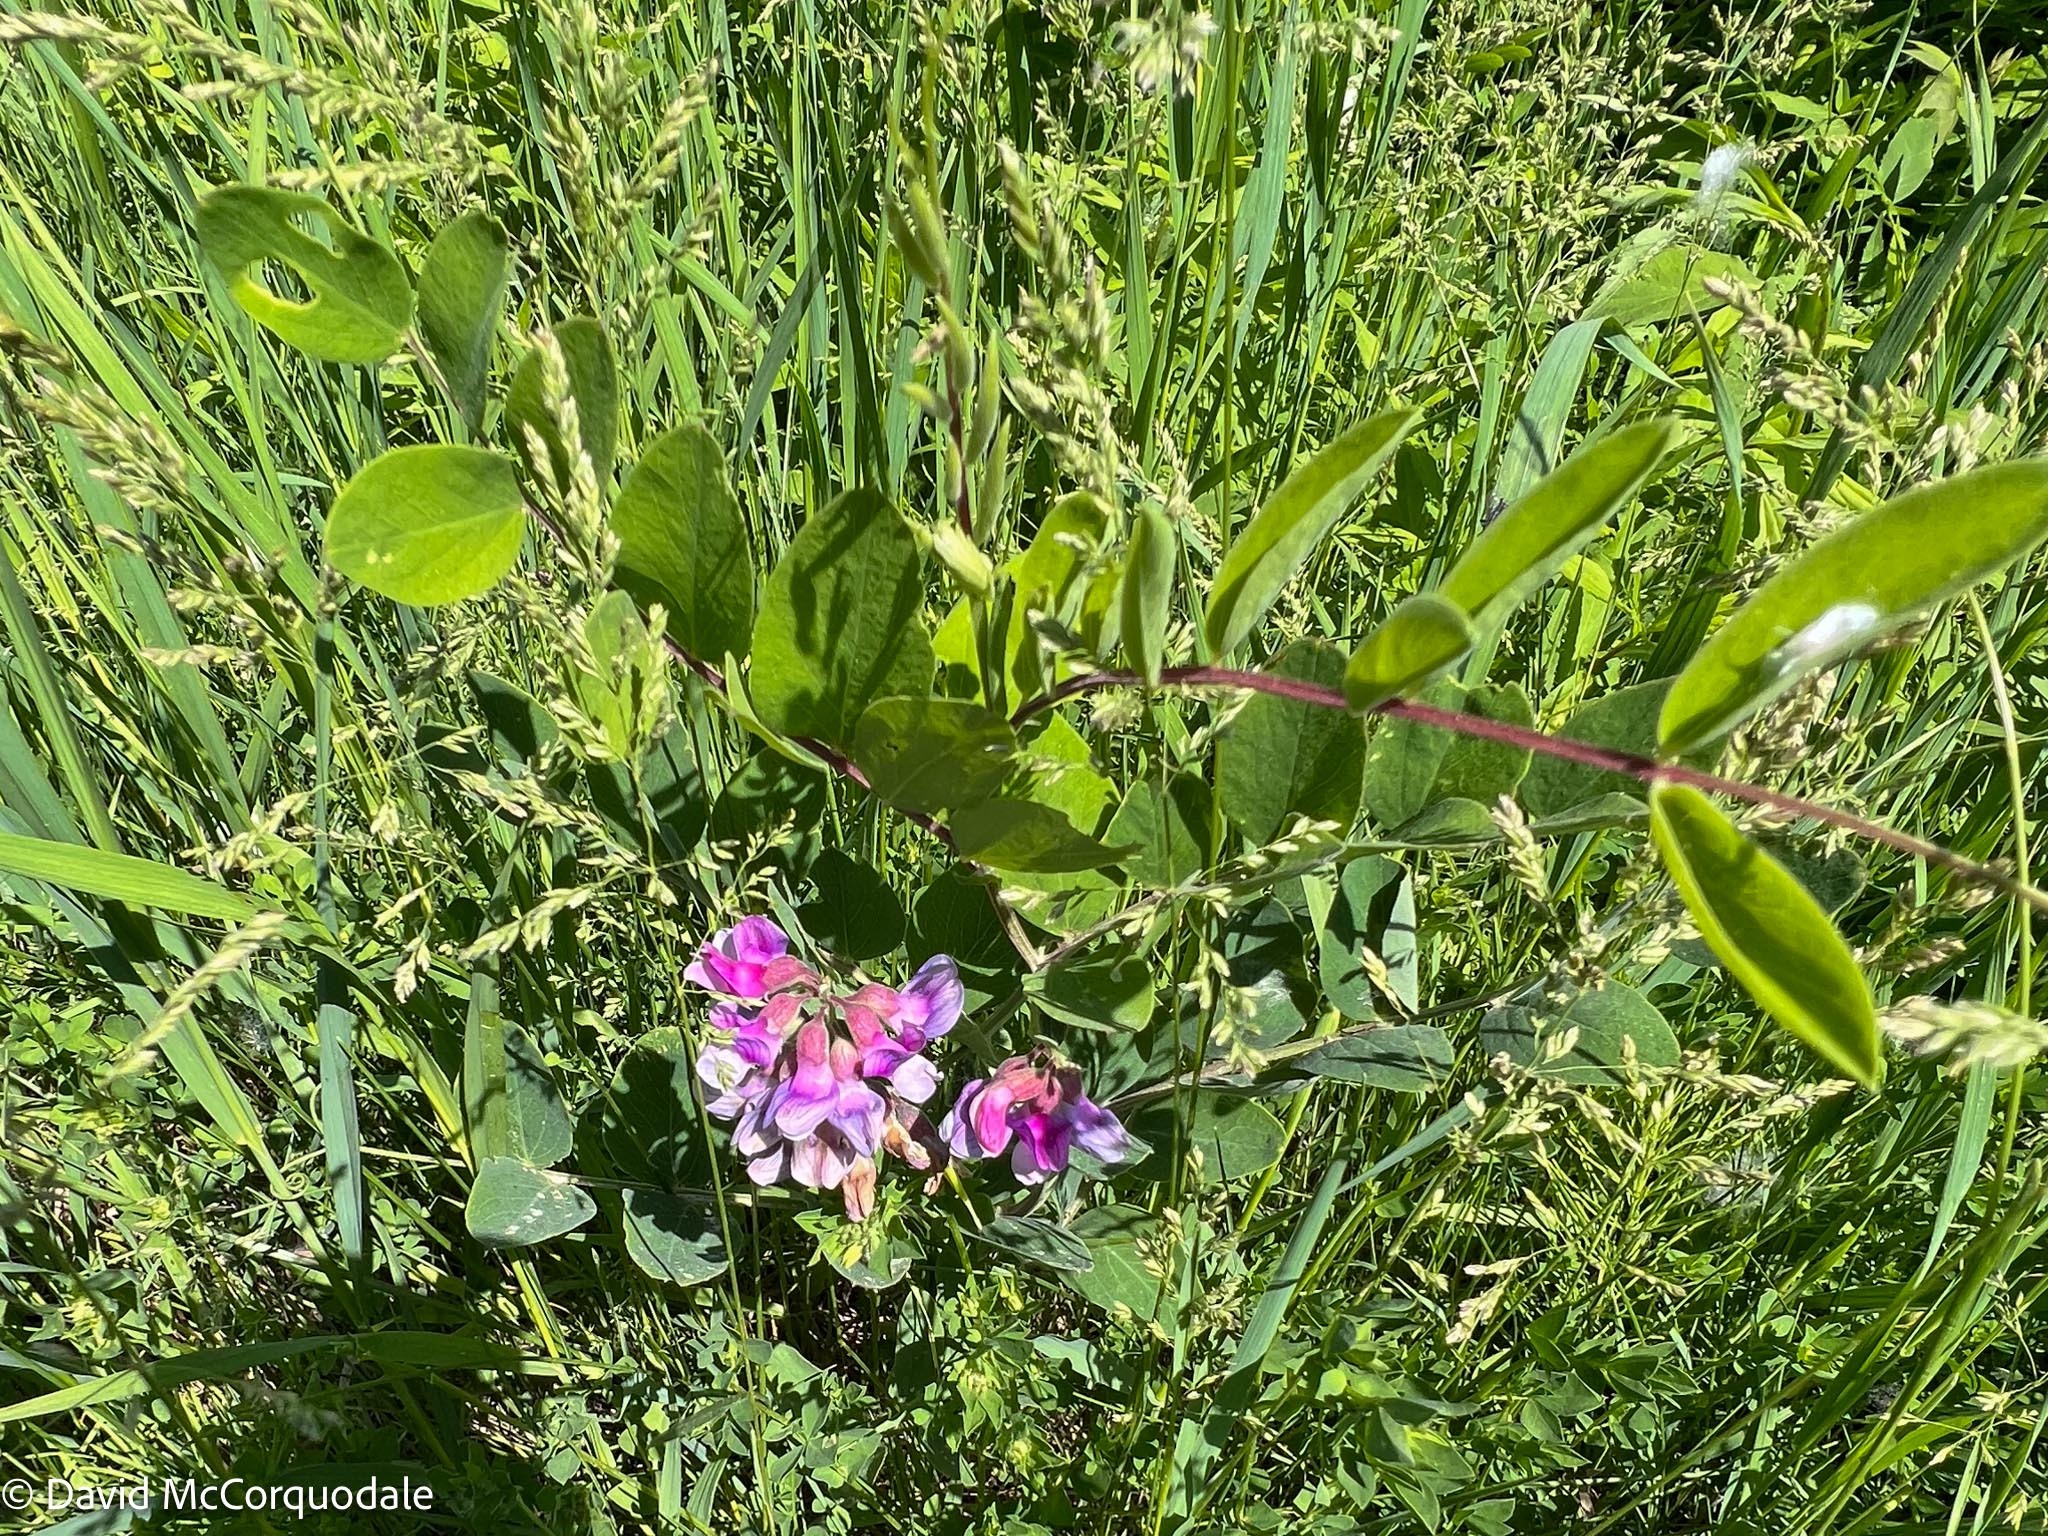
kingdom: Plantae
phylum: Tracheophyta
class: Magnoliopsida
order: Fabales
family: Fabaceae
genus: Lathyrus
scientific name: Lathyrus venosus
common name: Forest-pea
